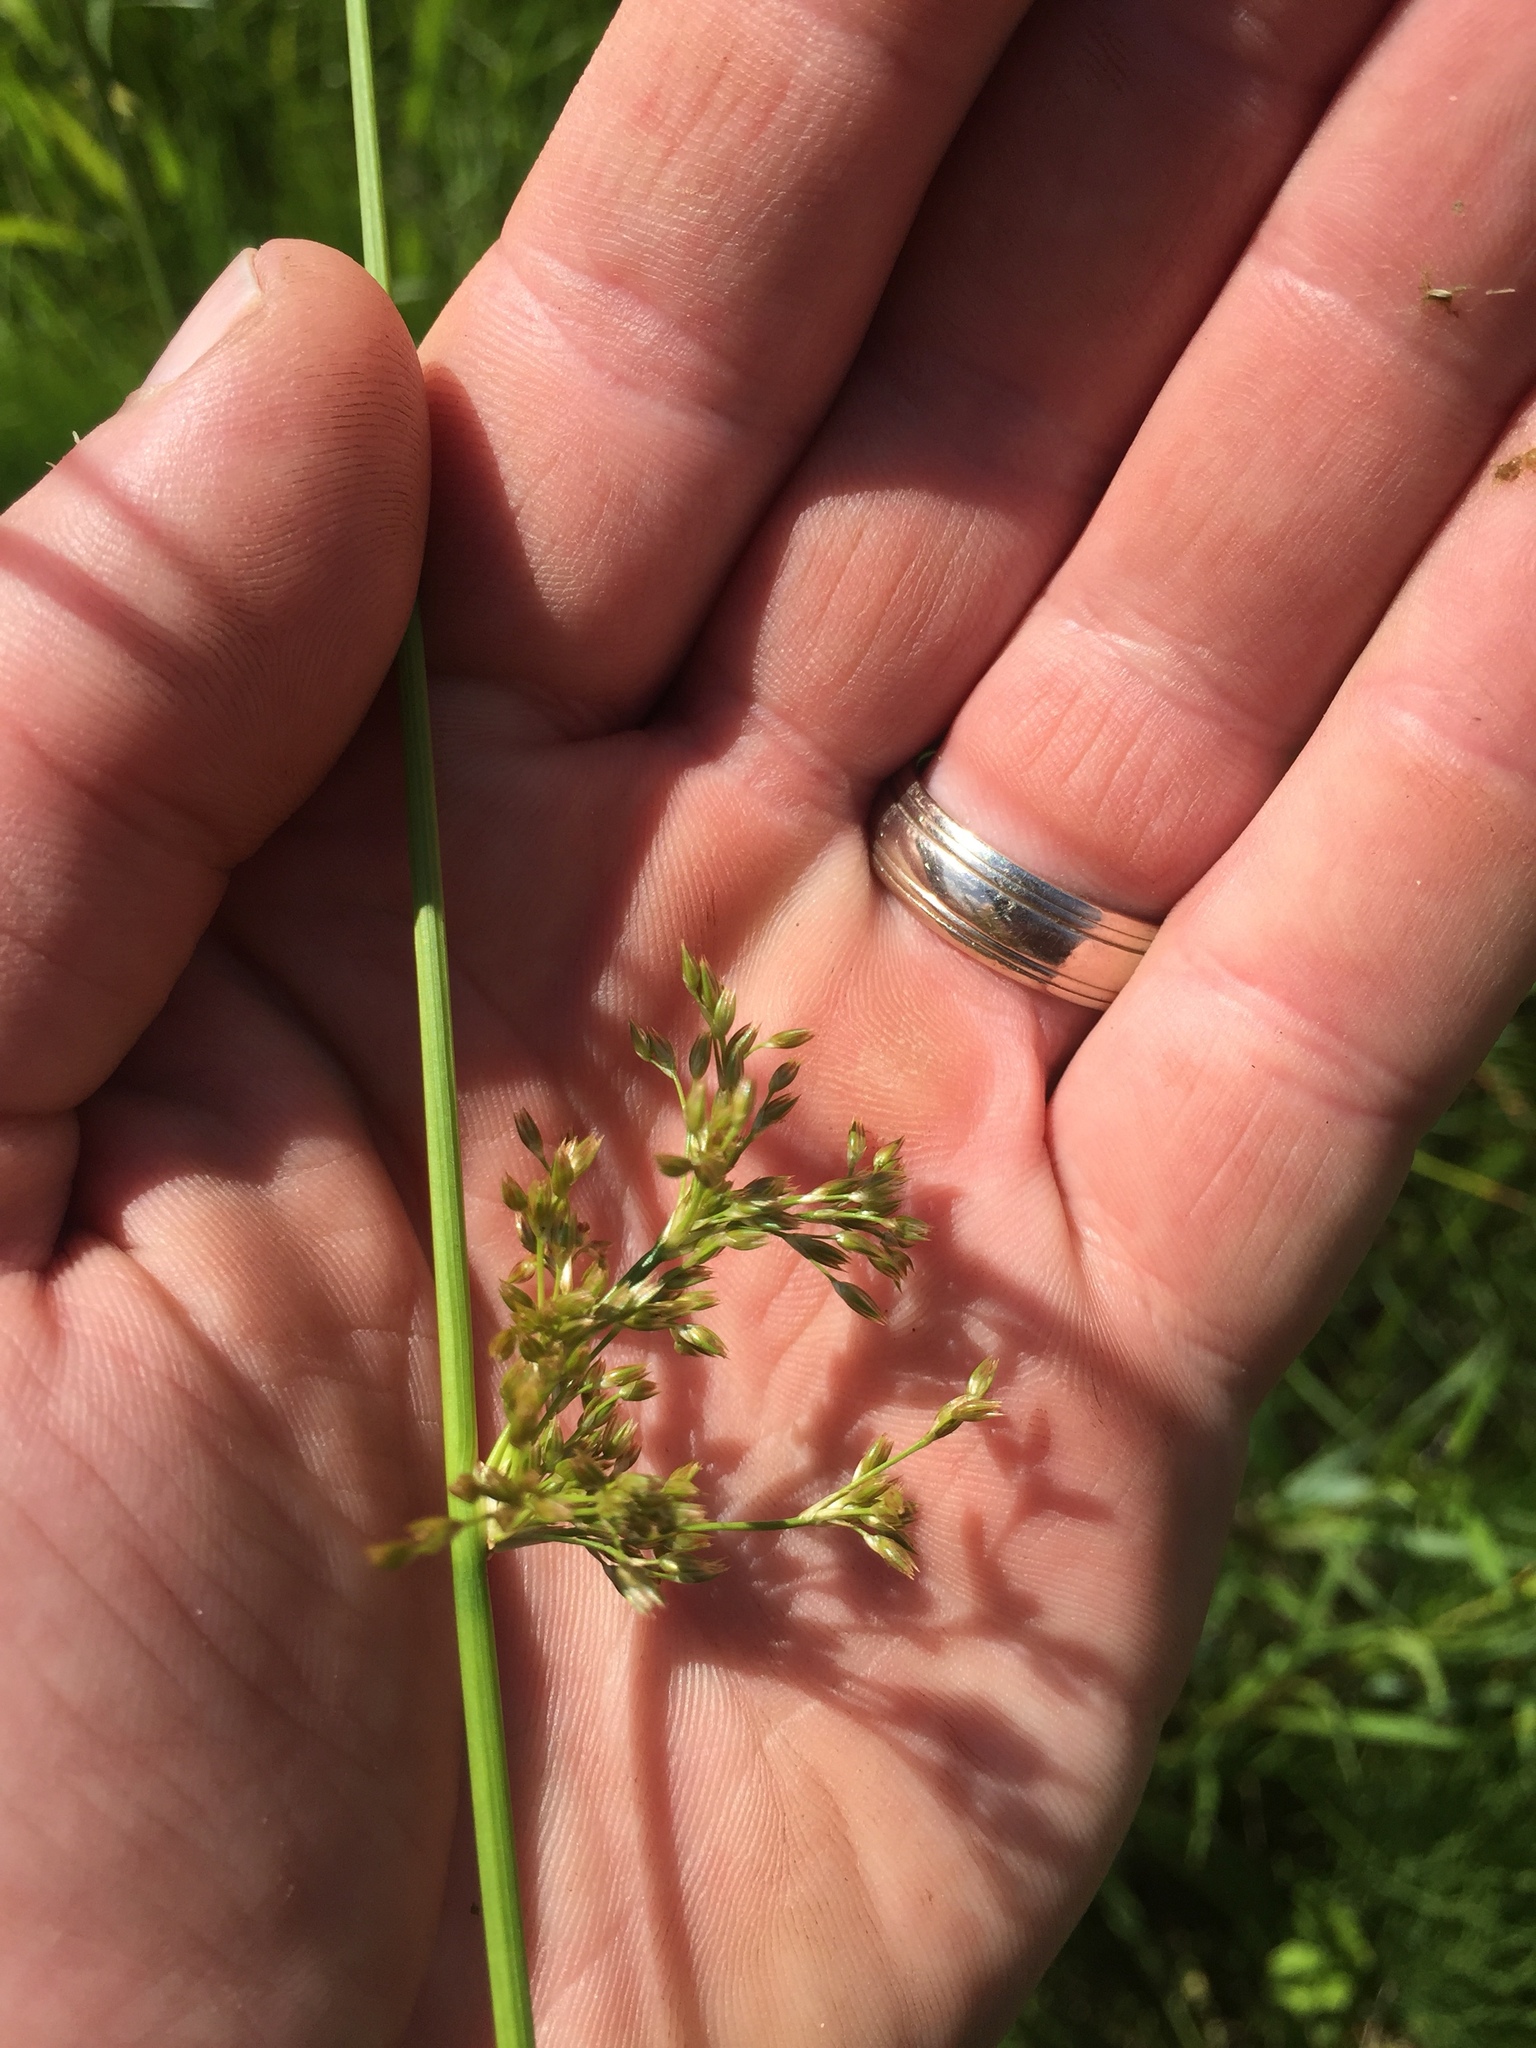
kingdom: Plantae
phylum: Tracheophyta
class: Liliopsida
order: Poales
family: Juncaceae
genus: Juncus
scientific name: Juncus pylaei
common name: Common rush
